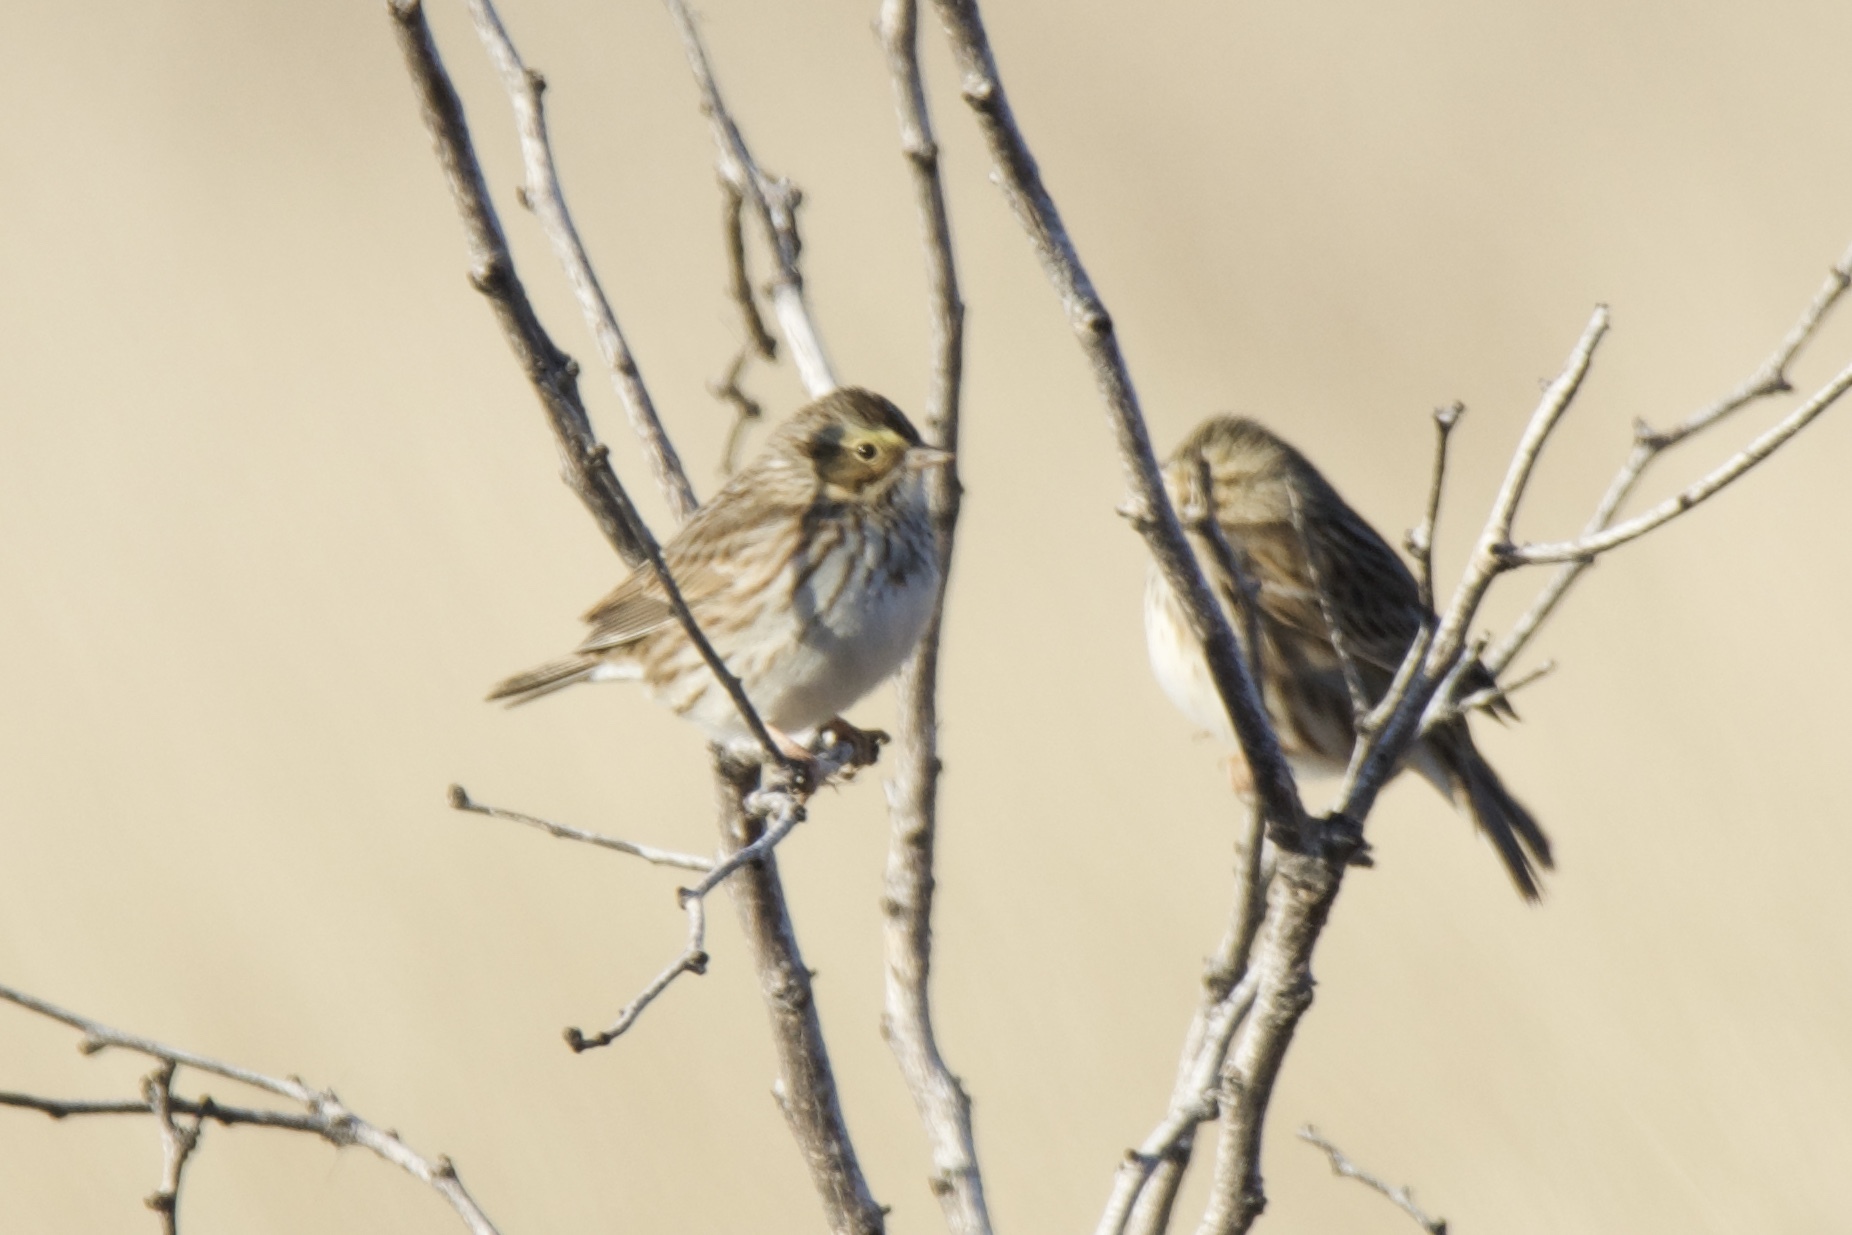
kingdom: Animalia
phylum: Chordata
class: Aves
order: Passeriformes
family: Passerellidae
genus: Passerculus
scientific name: Passerculus sandwichensis
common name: Savannah sparrow
